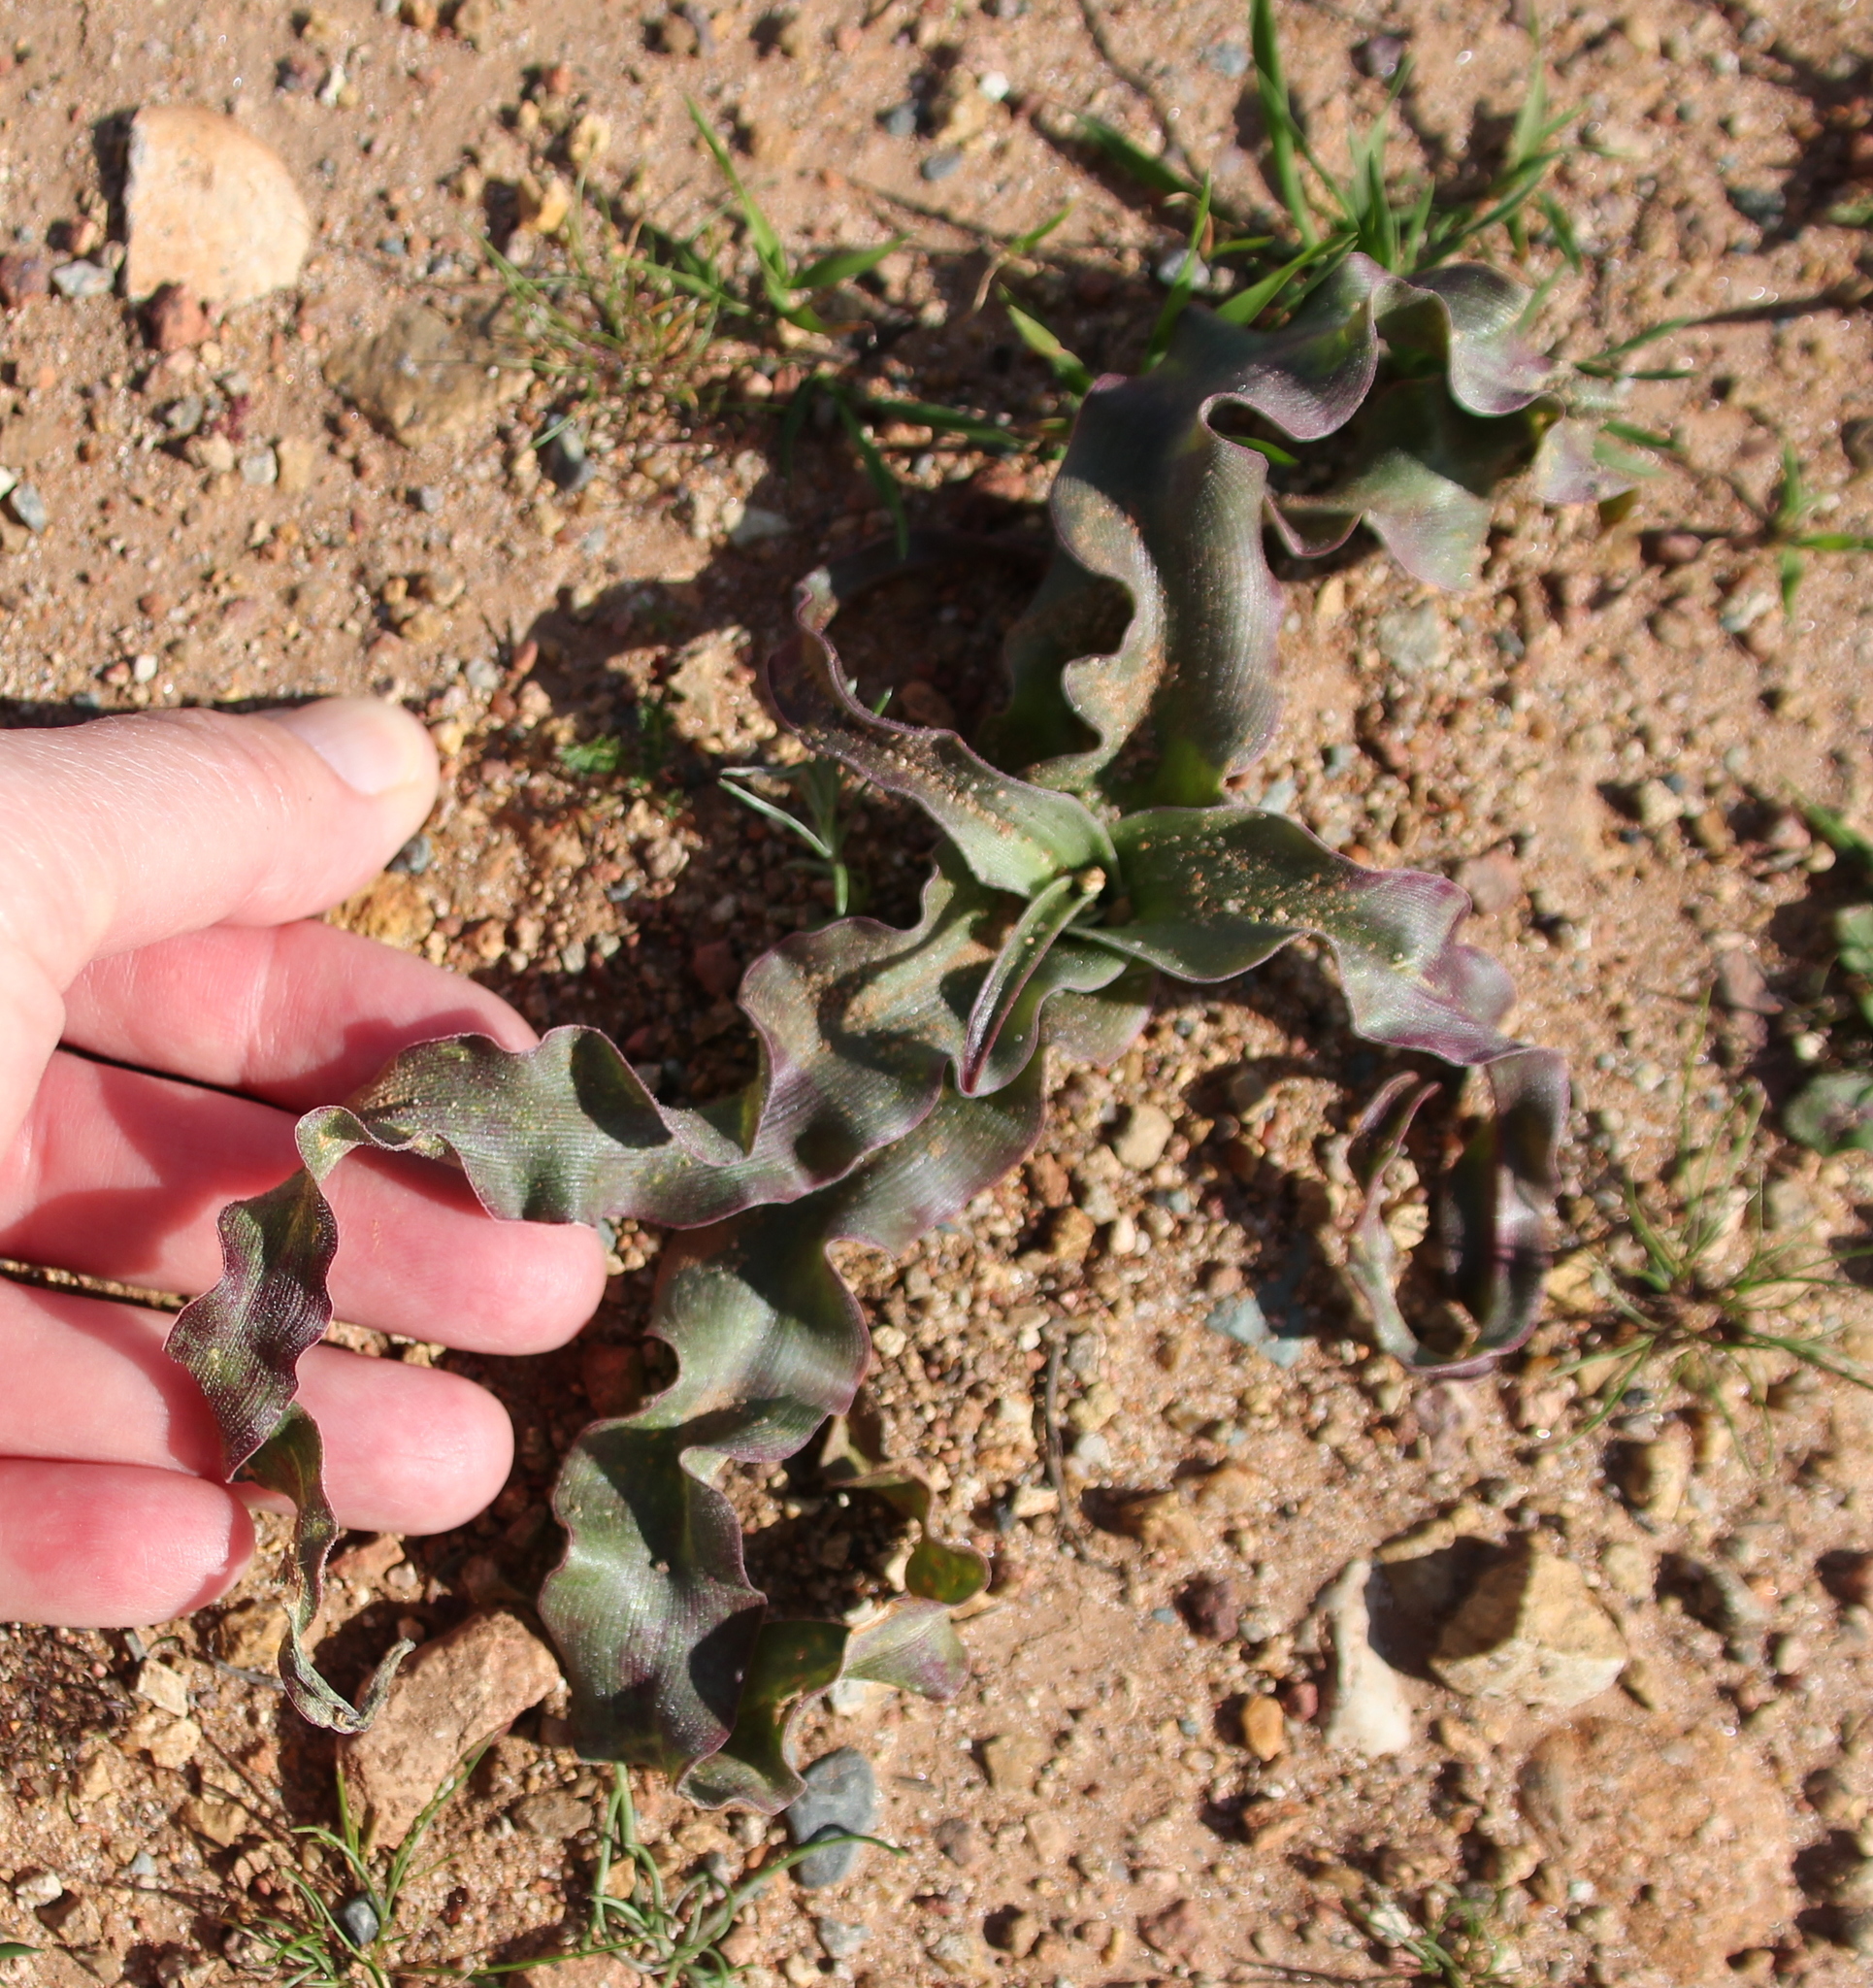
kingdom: Plantae
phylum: Tracheophyta
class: Liliopsida
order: Asparagales
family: Asparagaceae
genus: Hooveria
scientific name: Hooveria parviflora
